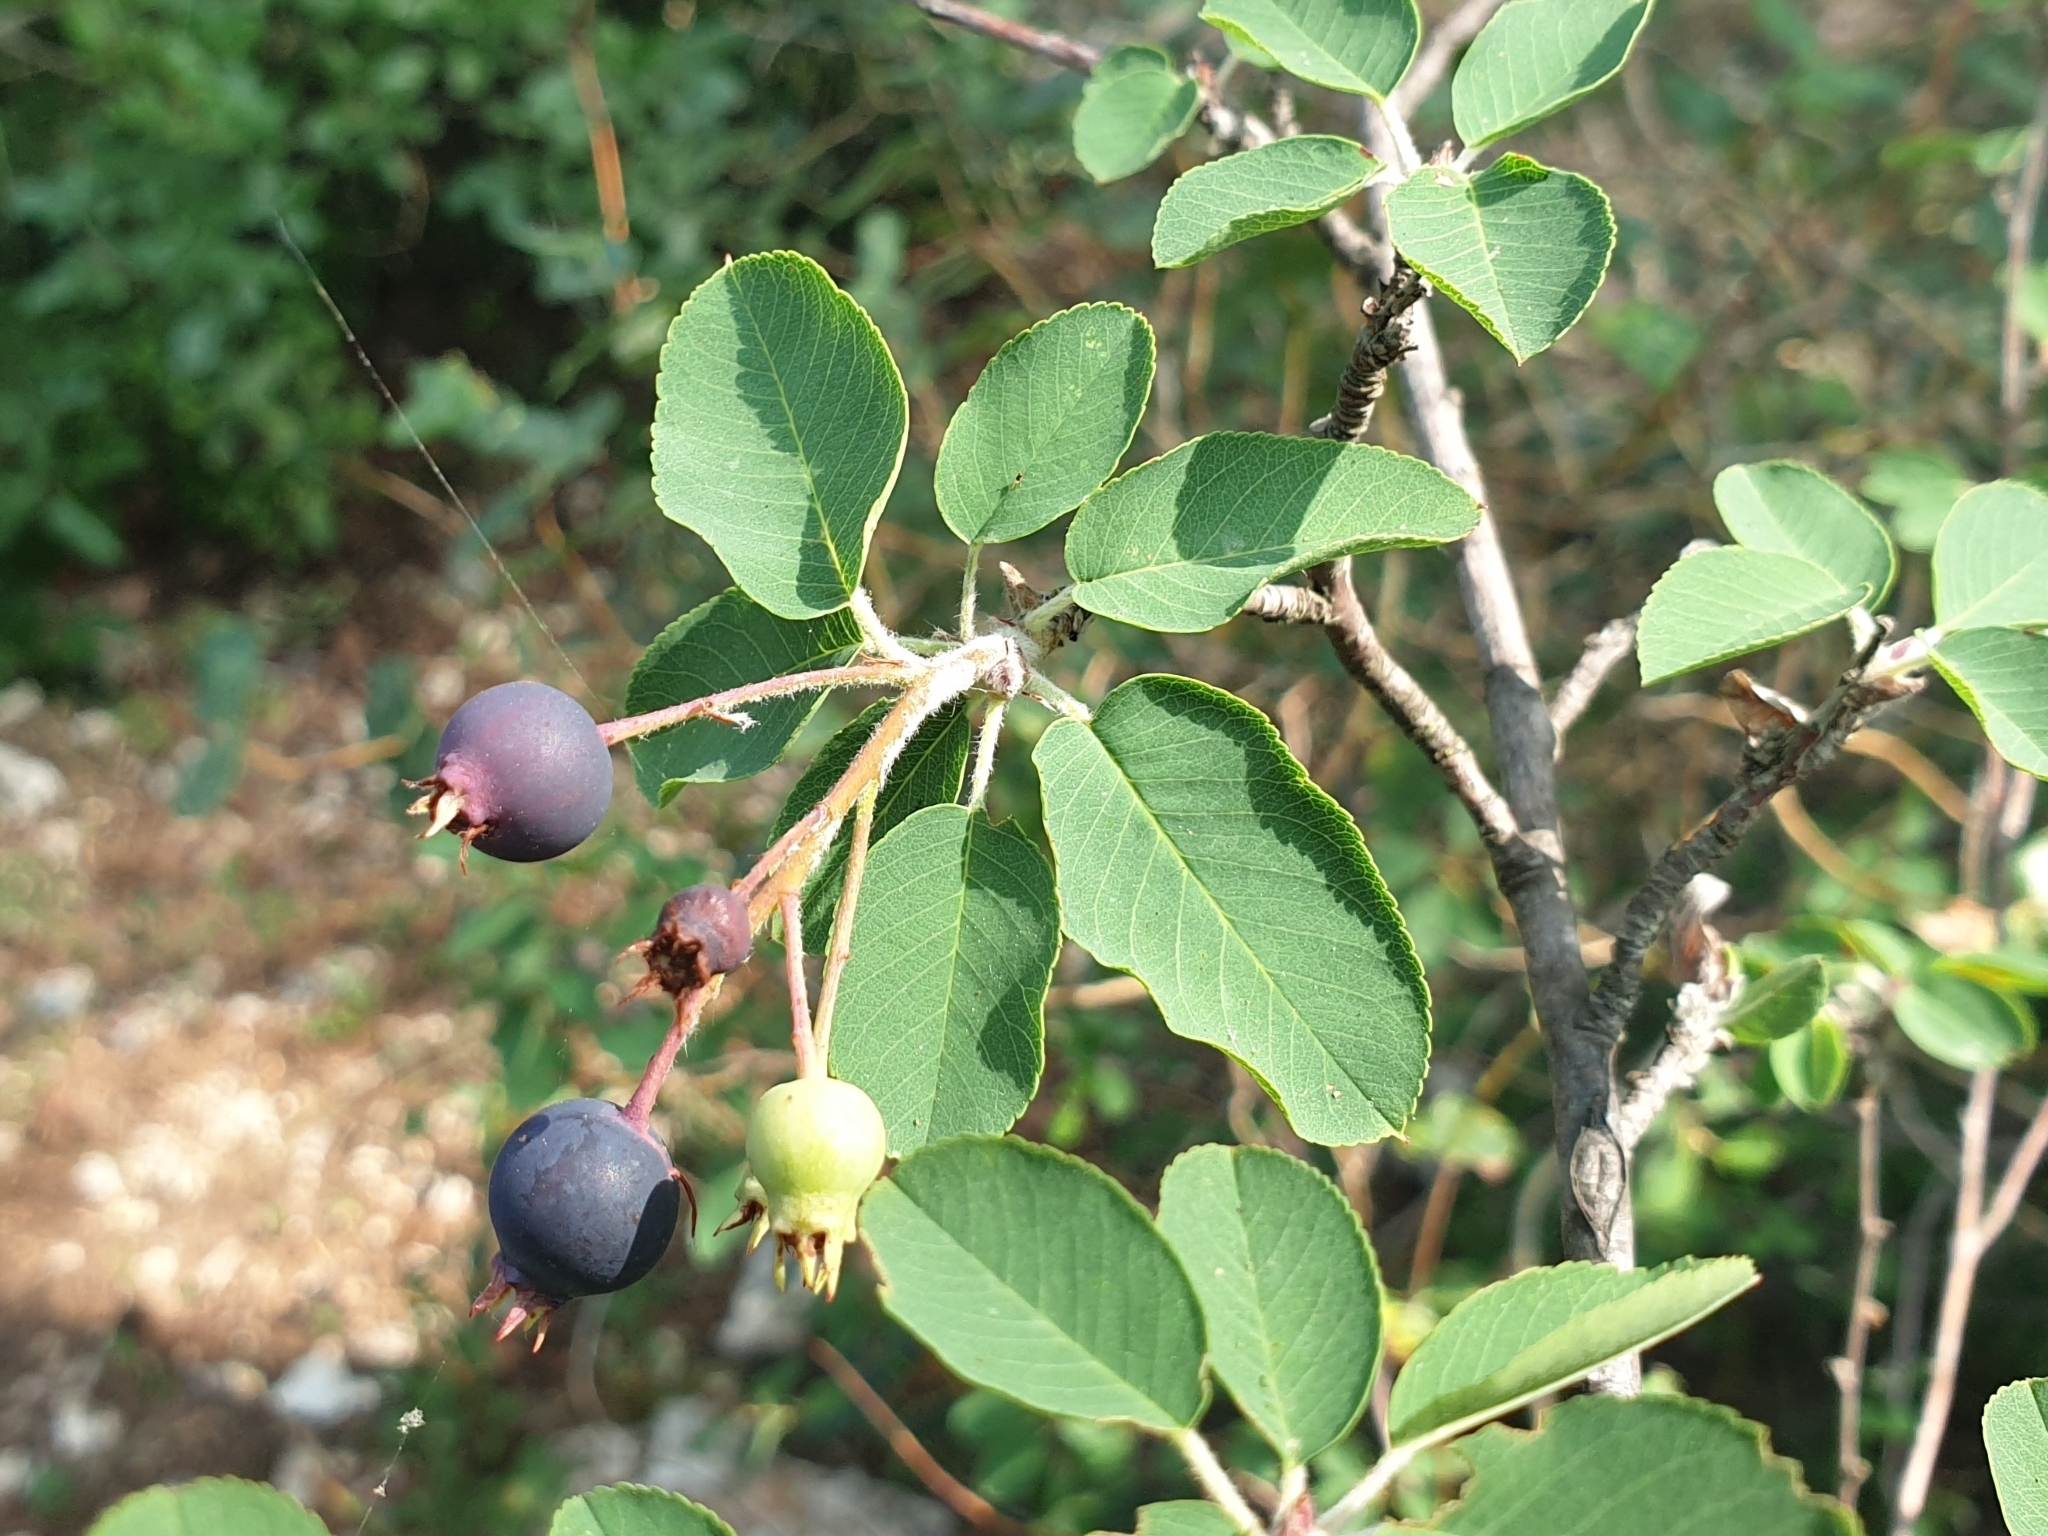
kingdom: Plantae
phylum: Tracheophyta
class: Magnoliopsida
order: Rosales
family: Rosaceae
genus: Amelanchier
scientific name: Amelanchier ovalis
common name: Serviceberry
